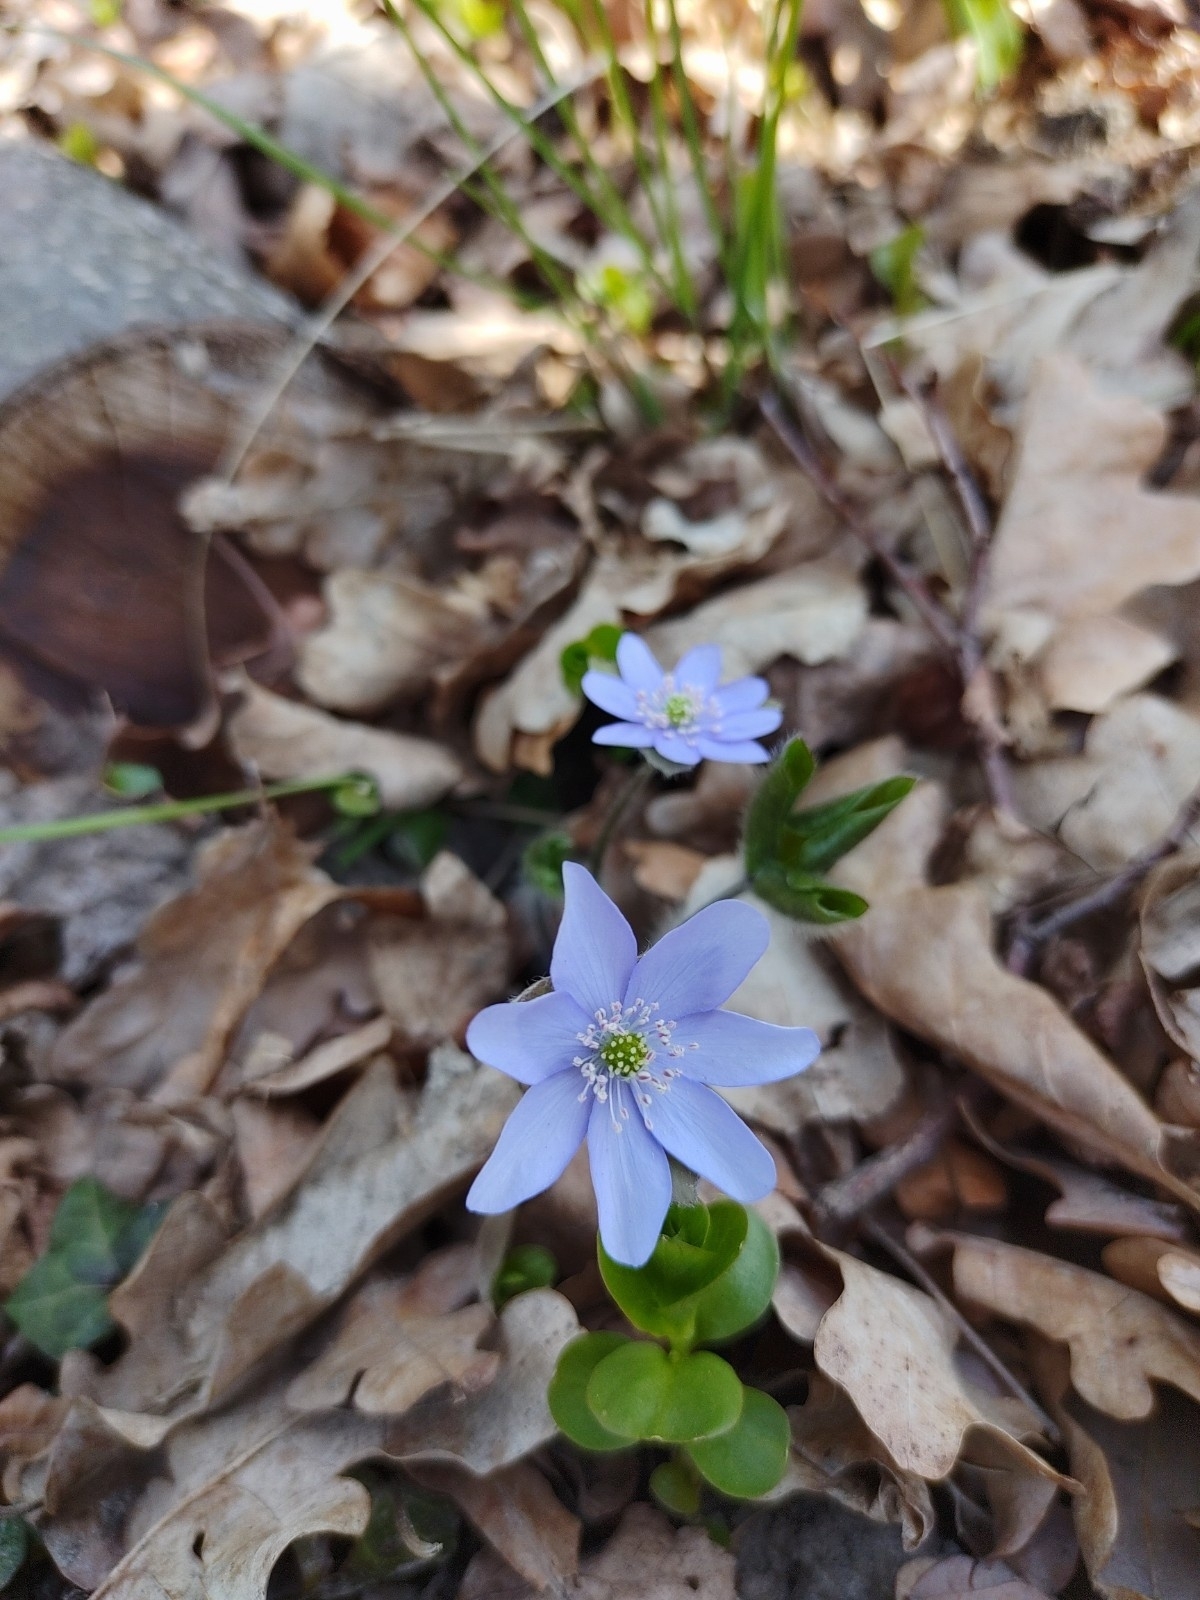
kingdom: Plantae
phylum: Tracheophyta
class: Magnoliopsida
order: Ranunculales
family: Ranunculaceae
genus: Hepatica
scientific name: Hepatica nobilis
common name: Liverleaf
